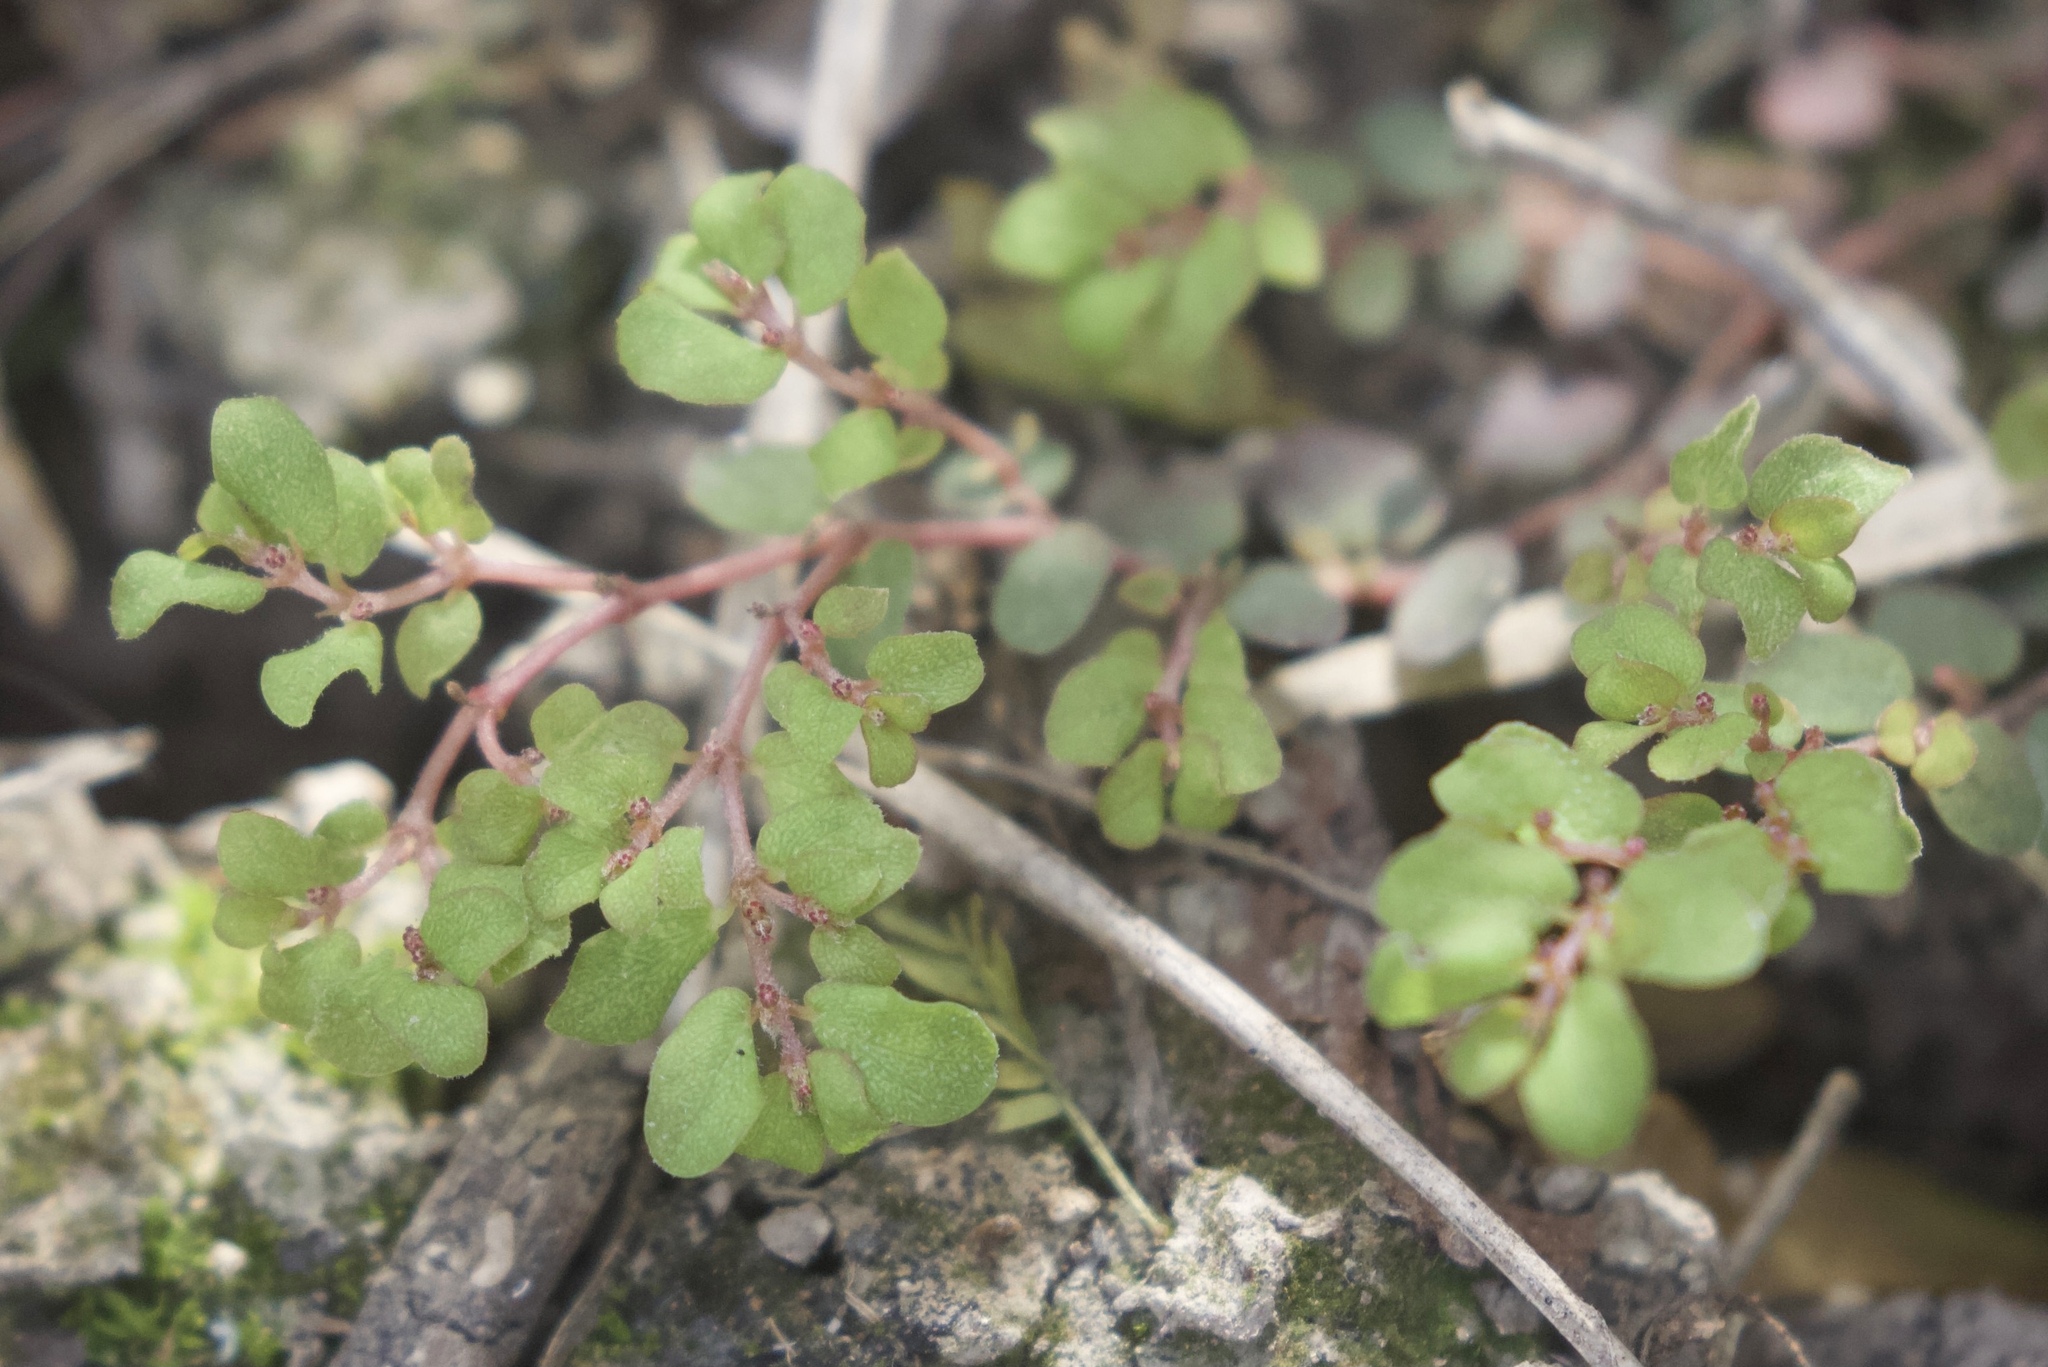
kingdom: Plantae
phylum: Tracheophyta
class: Magnoliopsida
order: Malpighiales
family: Euphorbiaceae
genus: Euphorbia
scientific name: Euphorbia prostrata
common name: Prostrate sandmat
